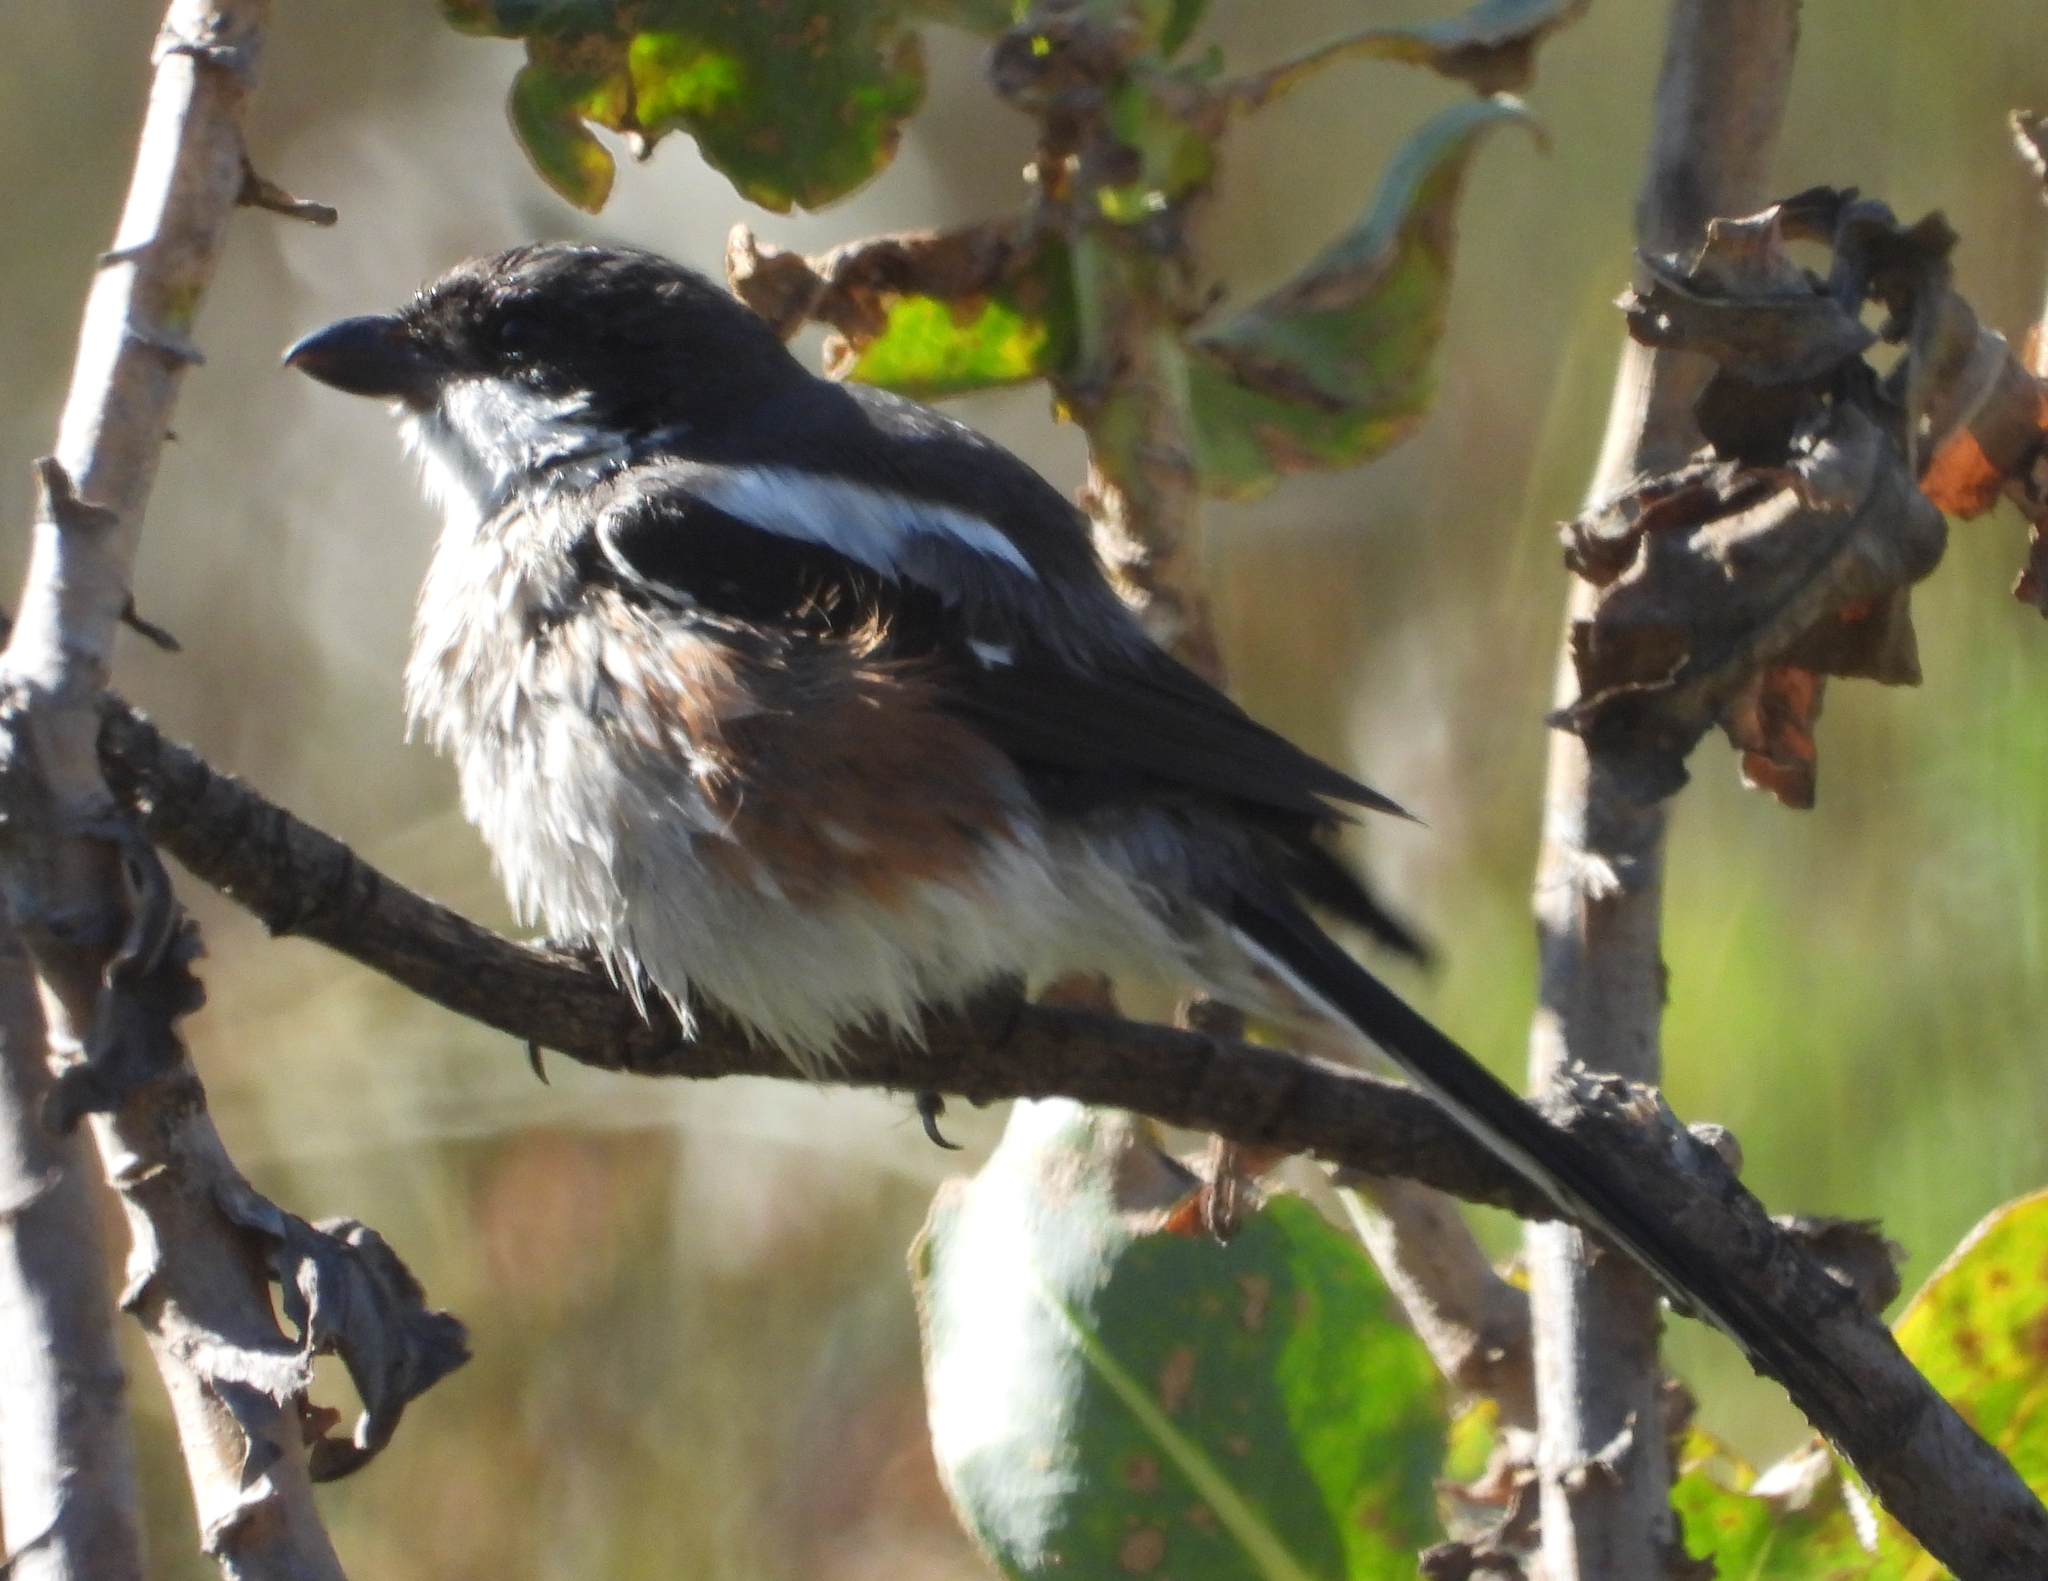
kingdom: Animalia
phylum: Chordata
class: Aves
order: Passeriformes
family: Laniidae
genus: Lanius
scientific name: Lanius collaris
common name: Southern fiscal
